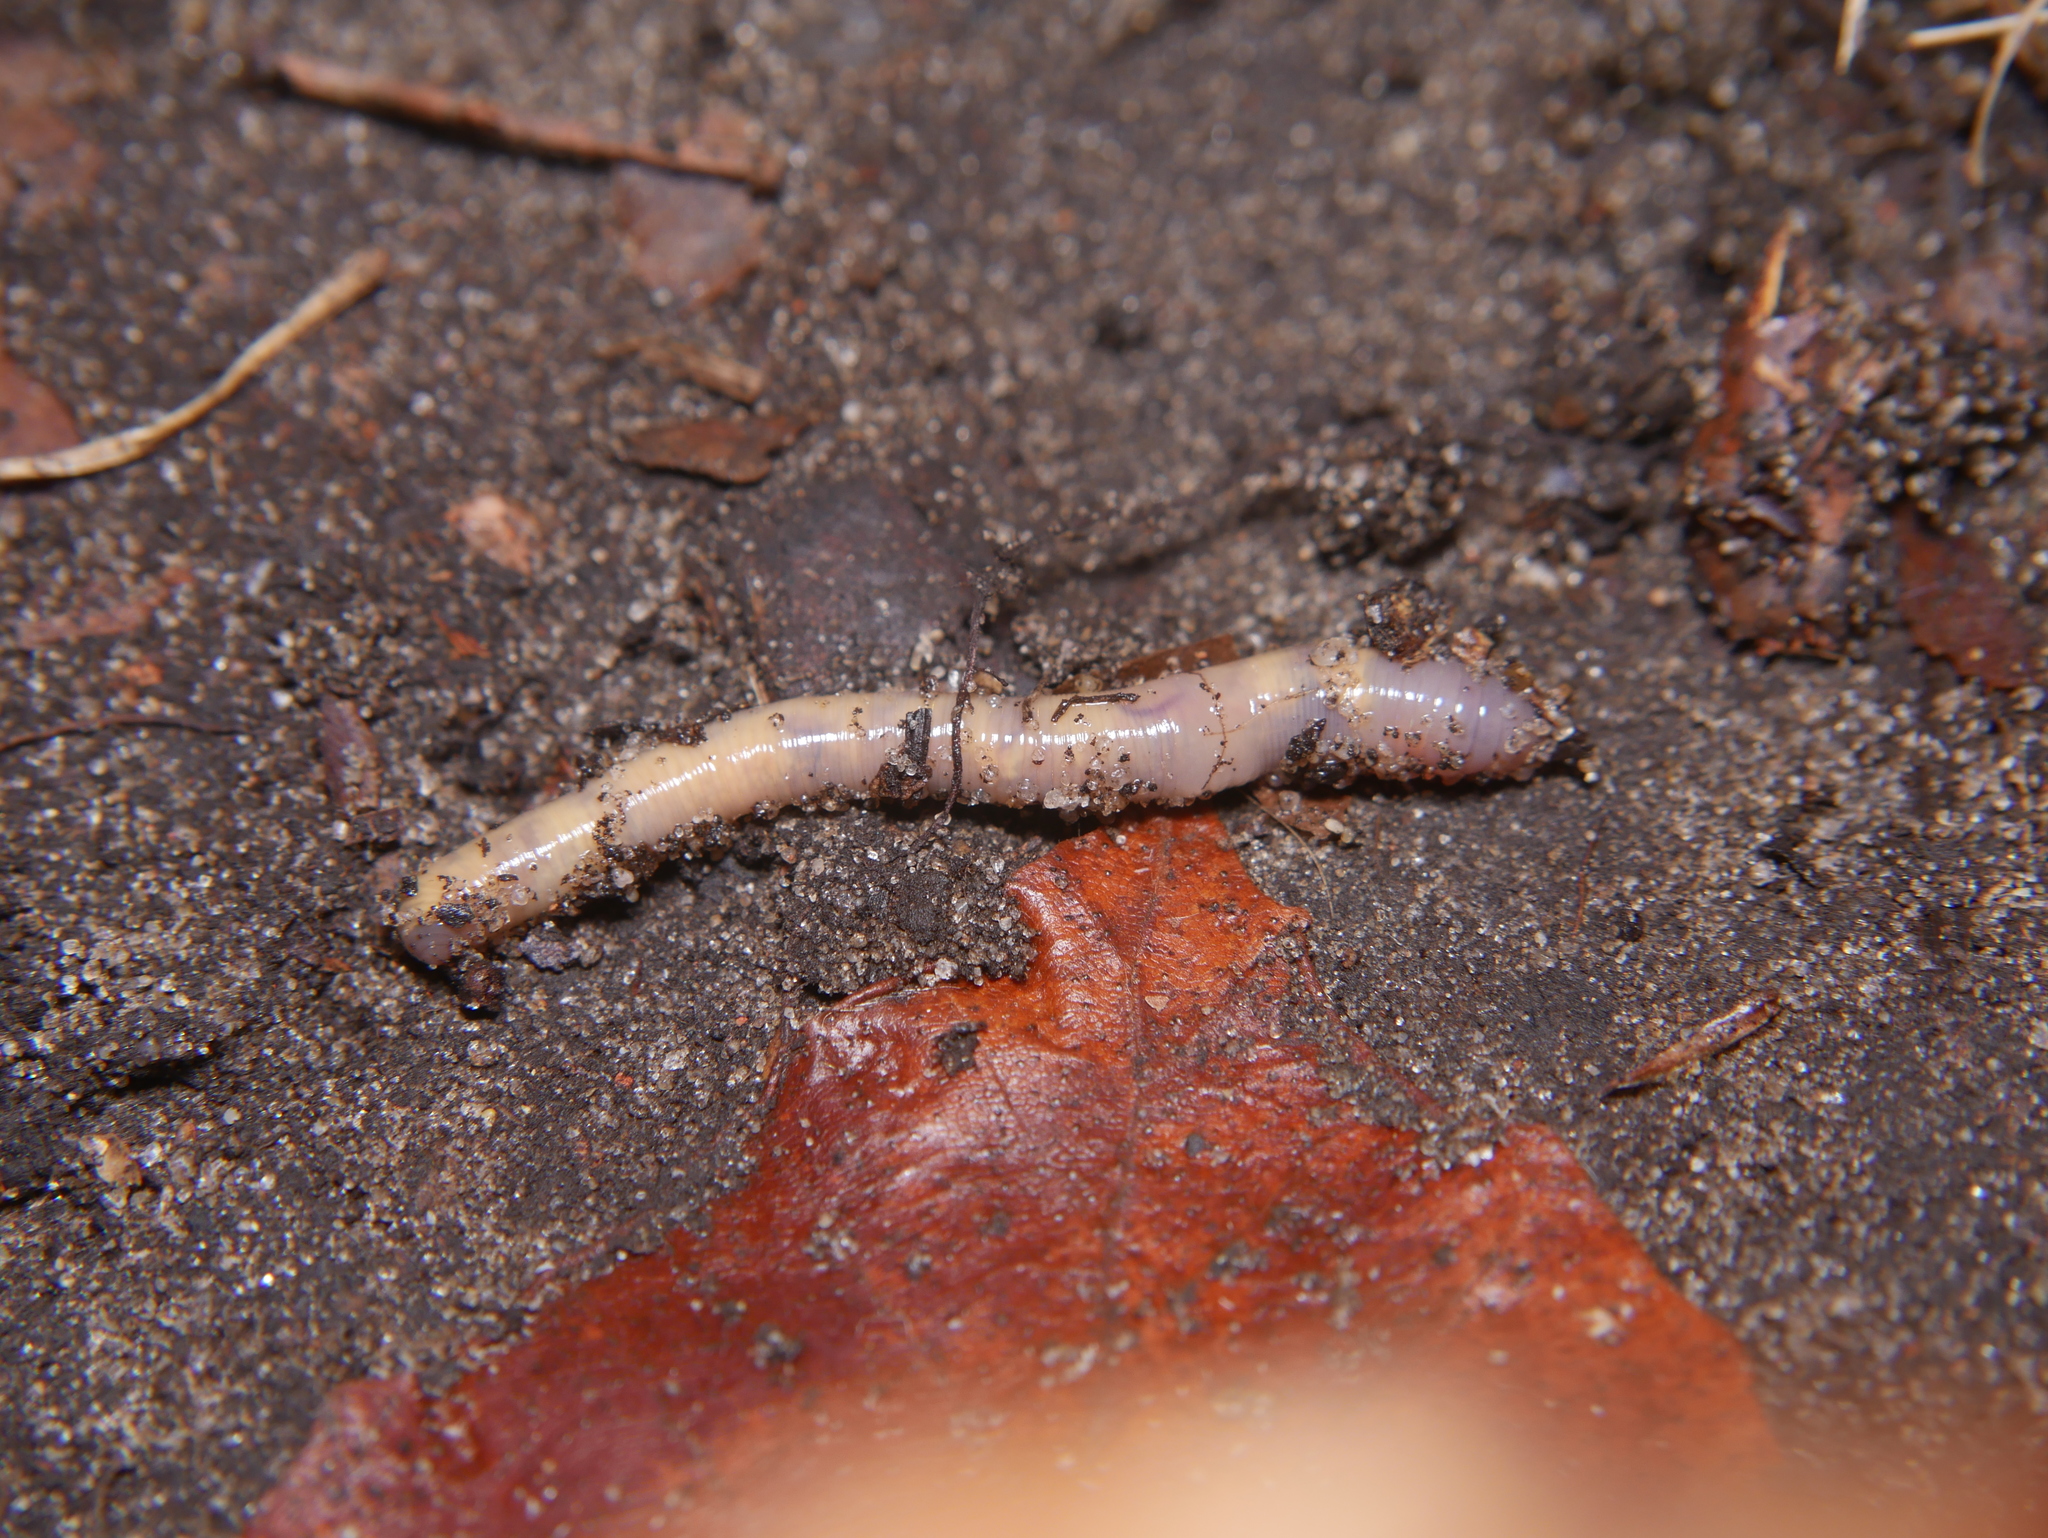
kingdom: Animalia
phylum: Annelida
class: Clitellata
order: Crassiclitellata
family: Lumbricidae
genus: Lumbricus
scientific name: Lumbricus terrestris
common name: Common earthworm
